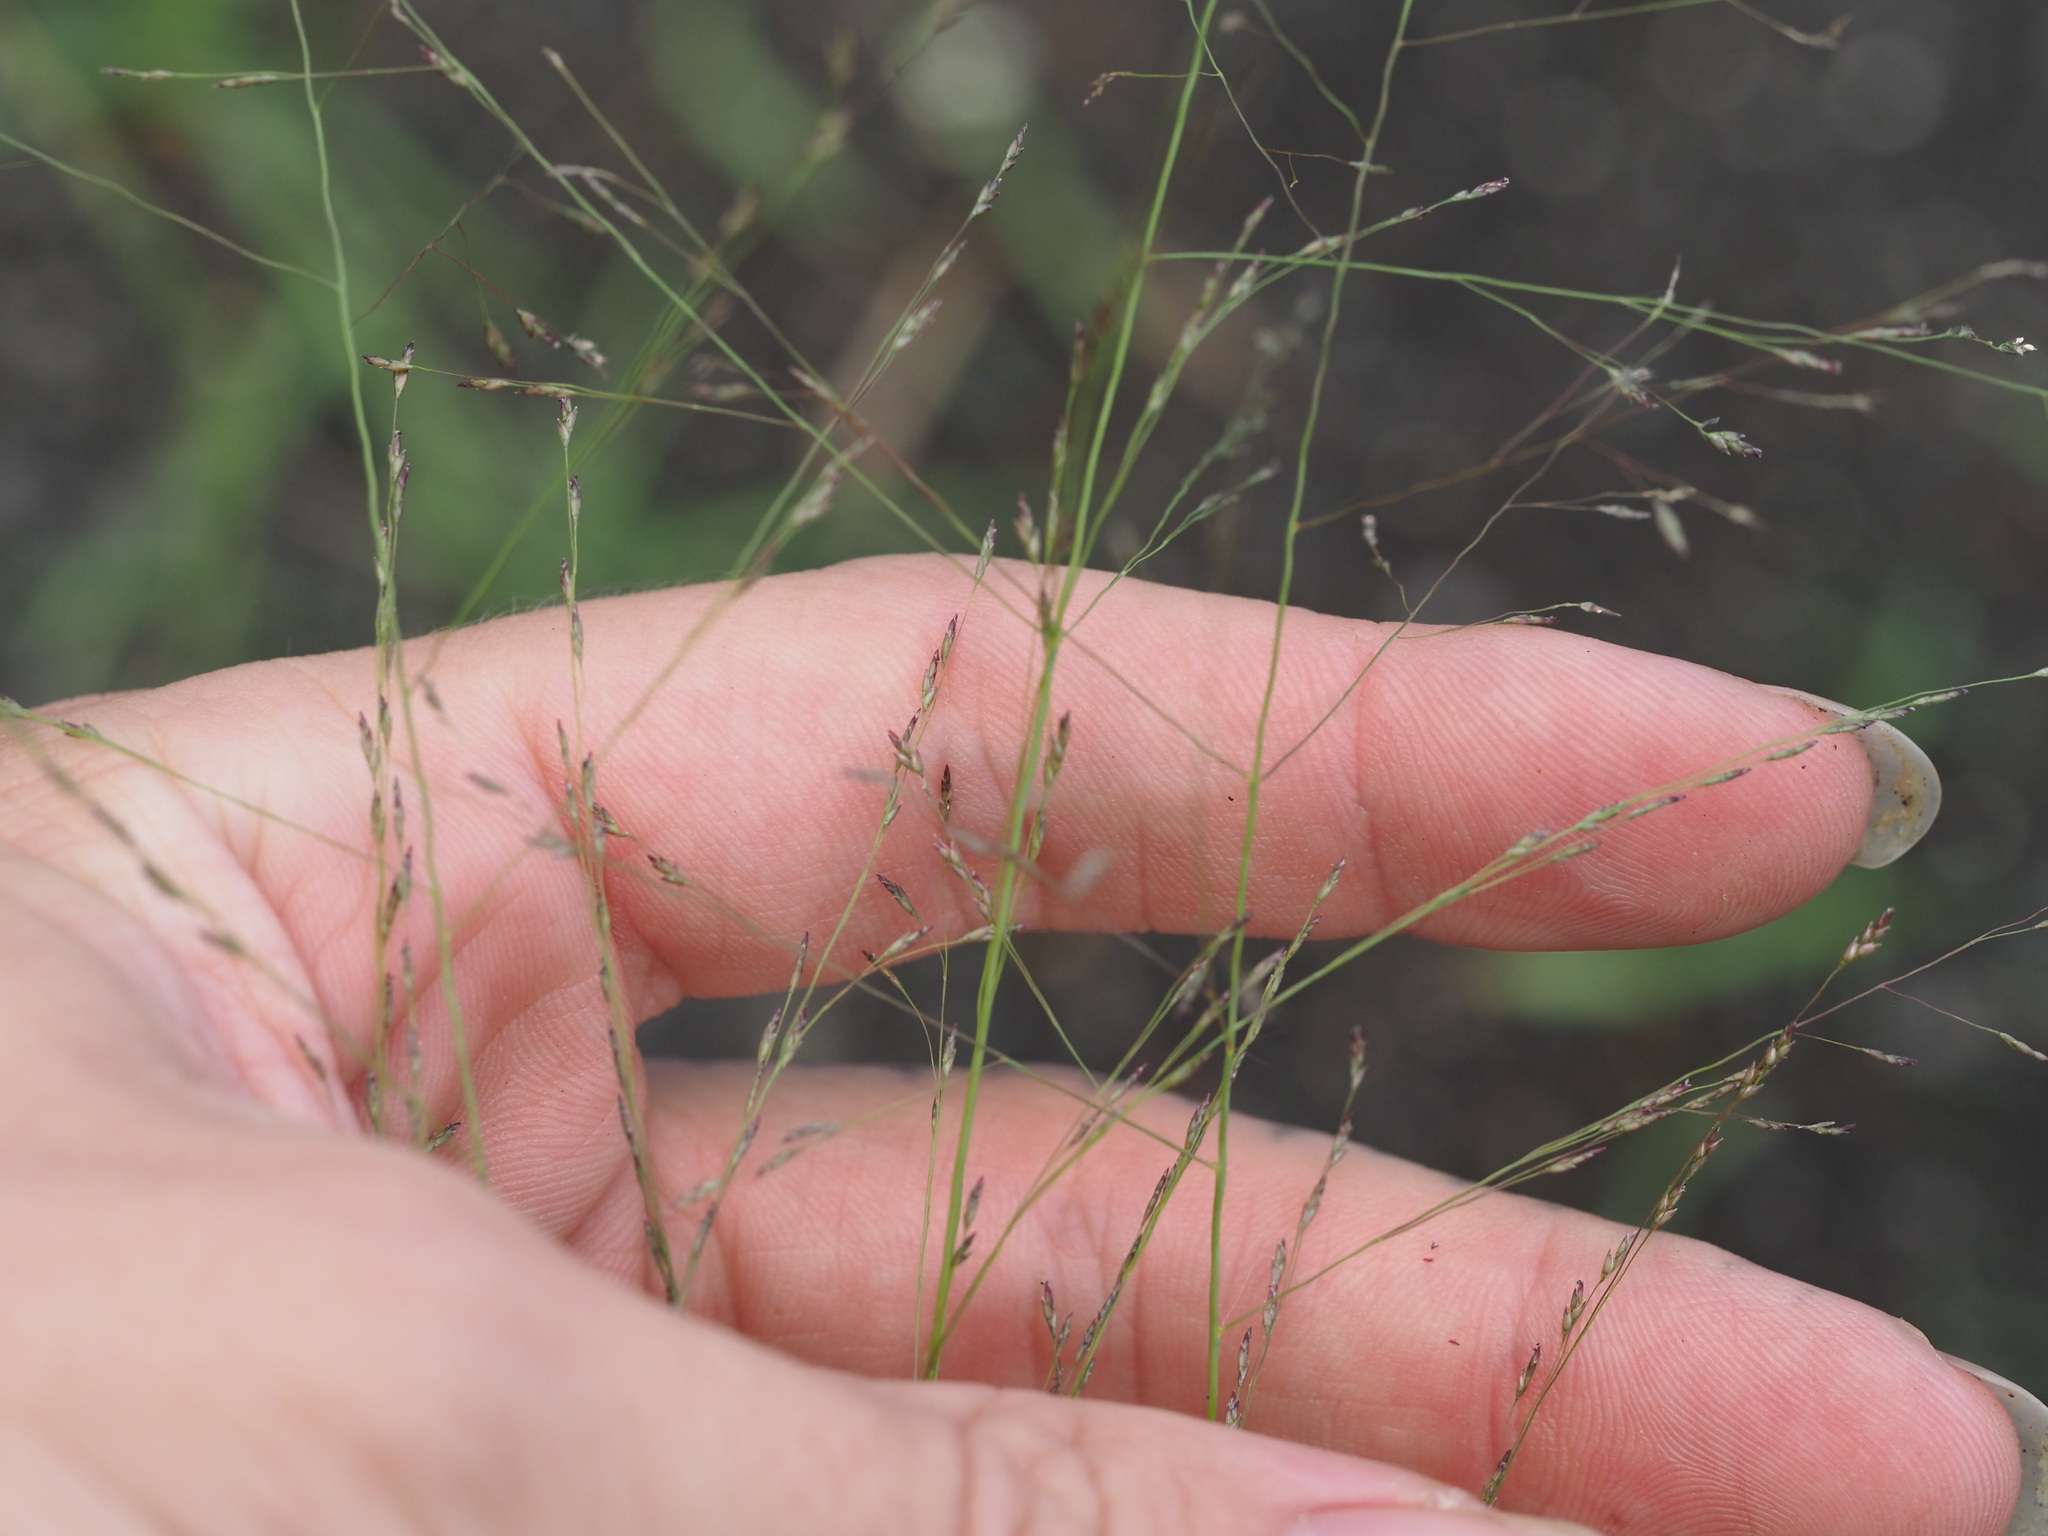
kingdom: Plantae
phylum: Tracheophyta
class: Liliopsida
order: Poales
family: Poaceae
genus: Eragrostis
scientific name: Eragrostis pilosa
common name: Indian lovegrass
